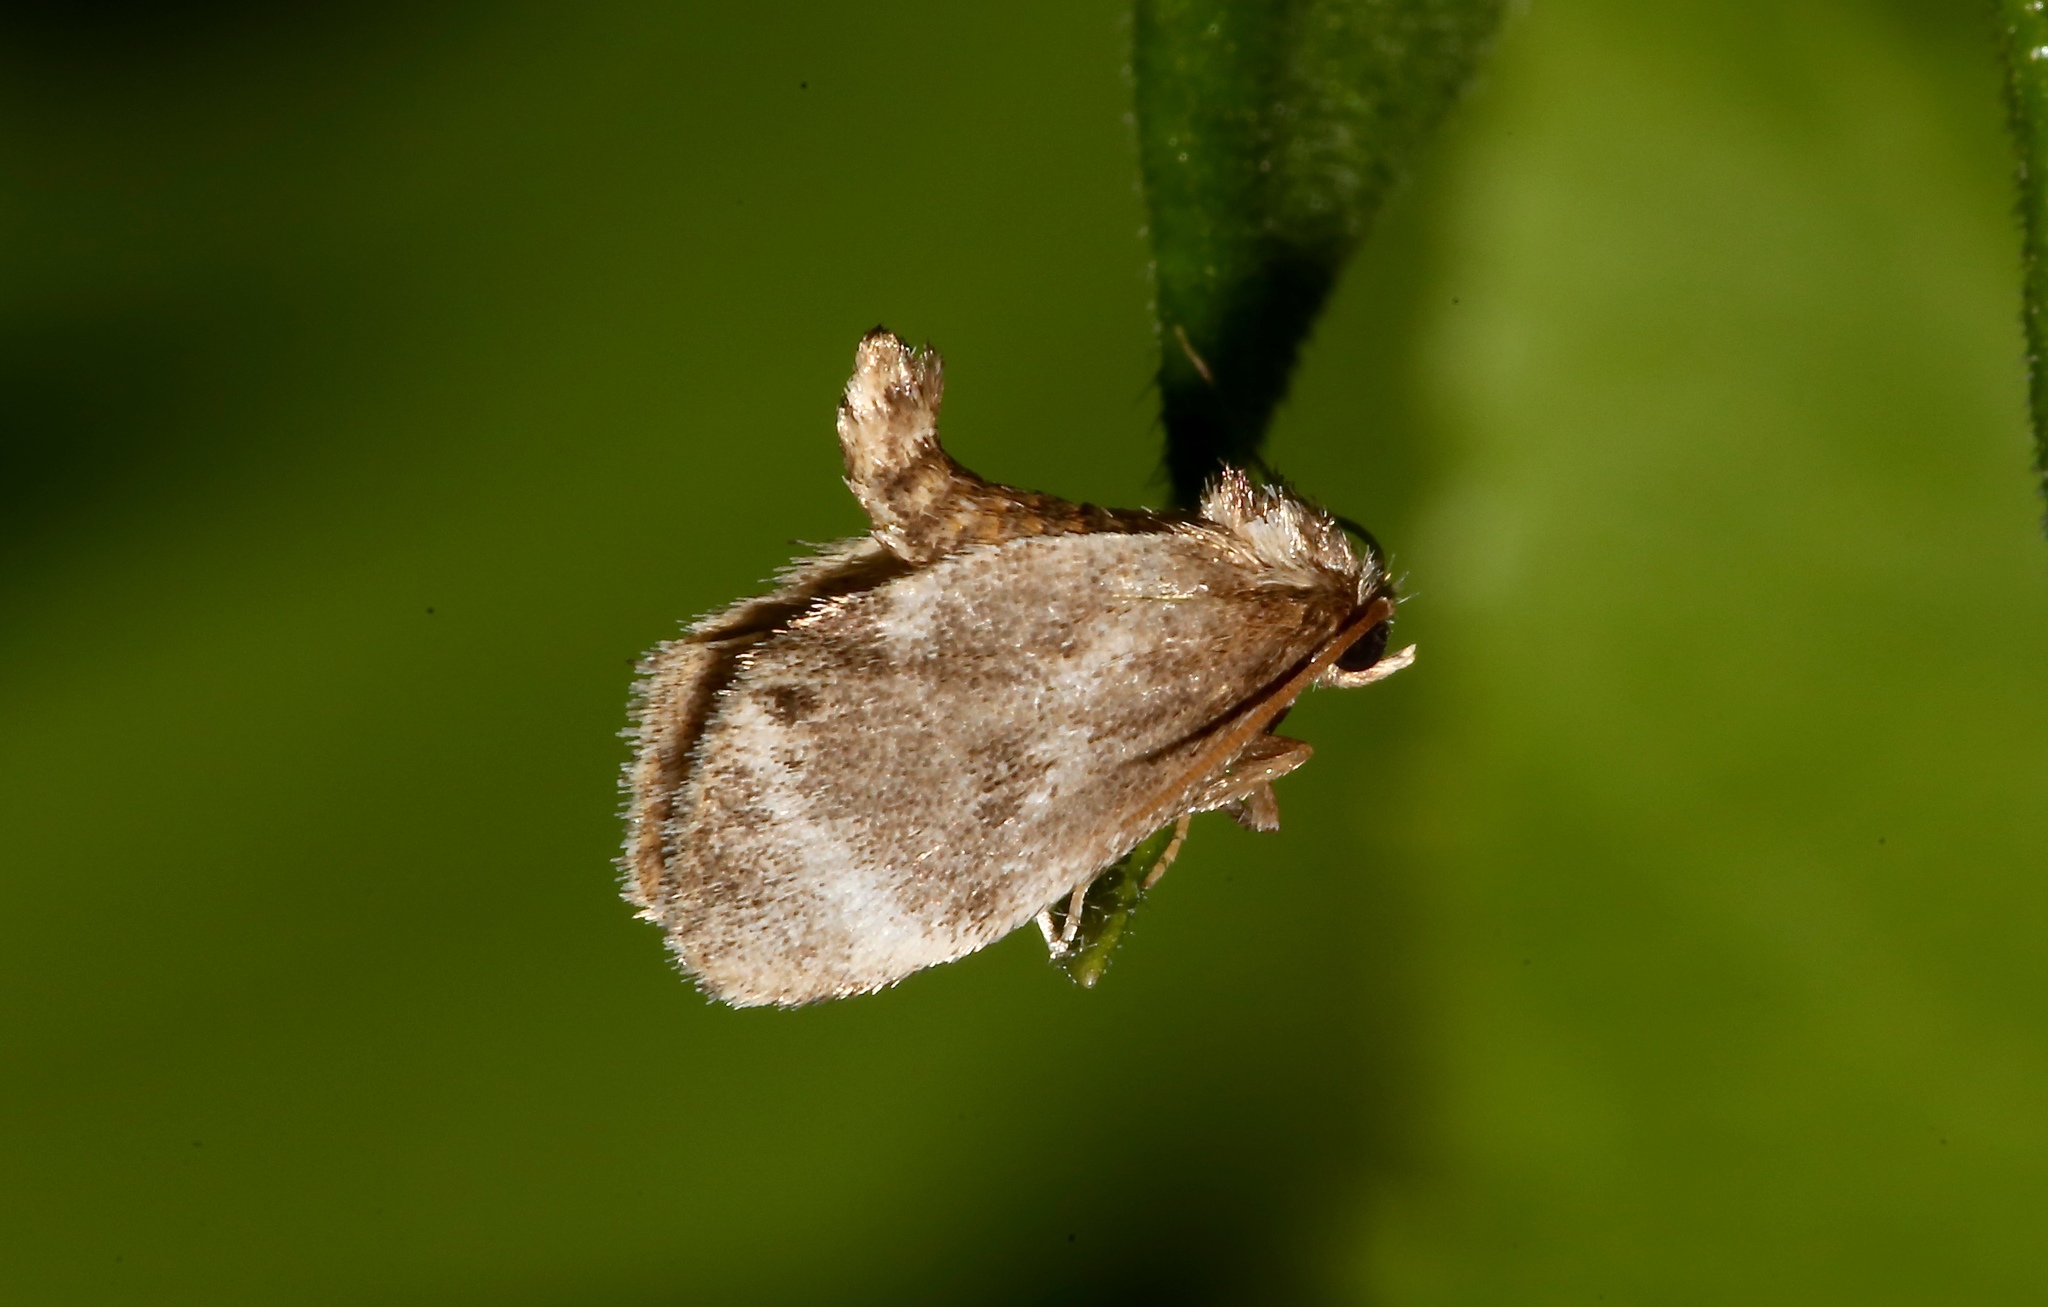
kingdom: Animalia
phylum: Arthropoda
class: Insecta
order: Lepidoptera
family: Limacodidae
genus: Packardia
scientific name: Packardia elegans
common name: Elegant tailed slug moth
